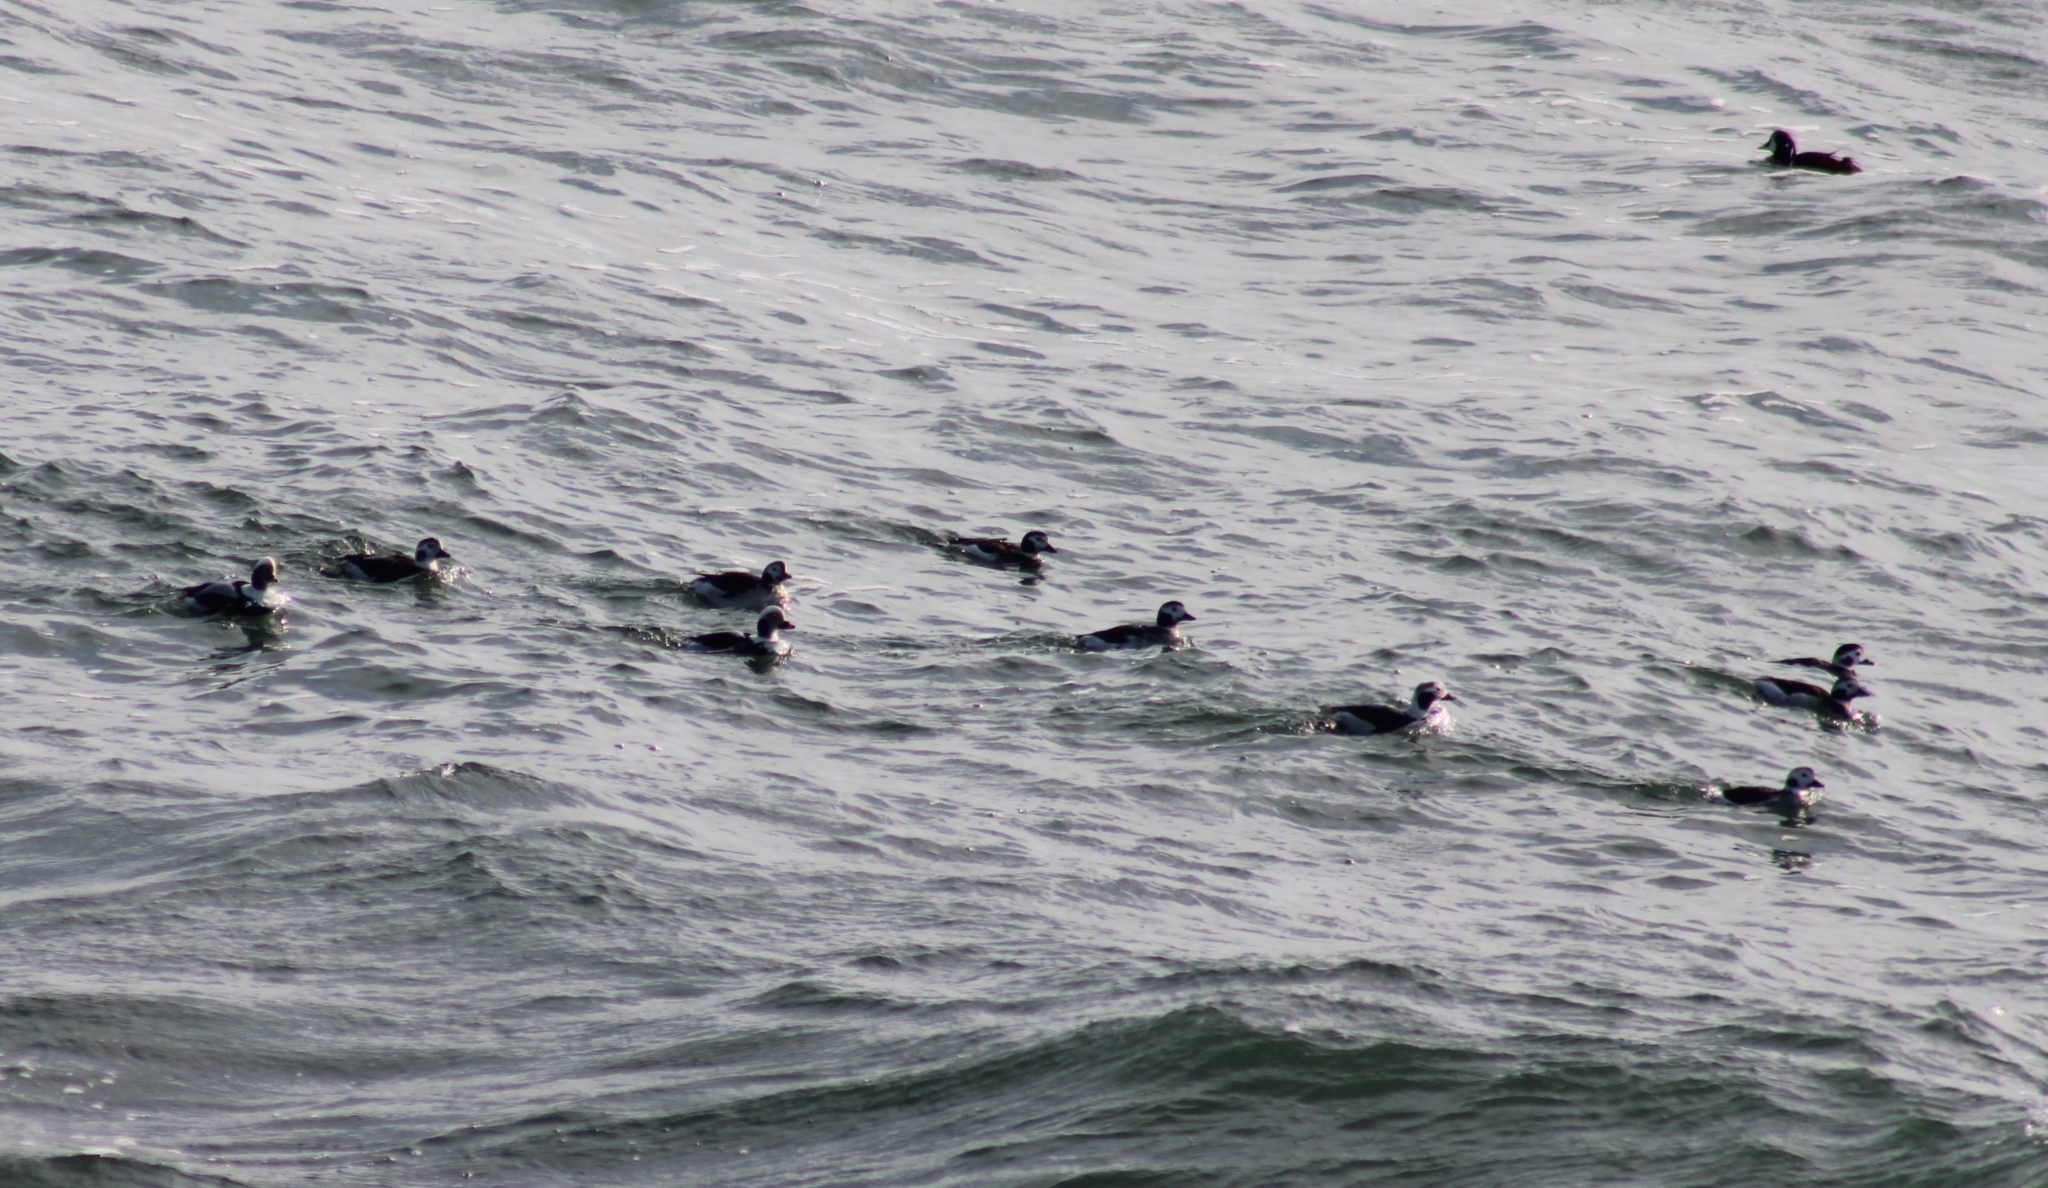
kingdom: Animalia
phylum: Chordata
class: Aves
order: Anseriformes
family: Anatidae
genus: Clangula
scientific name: Clangula hyemalis
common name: Long-tailed duck
